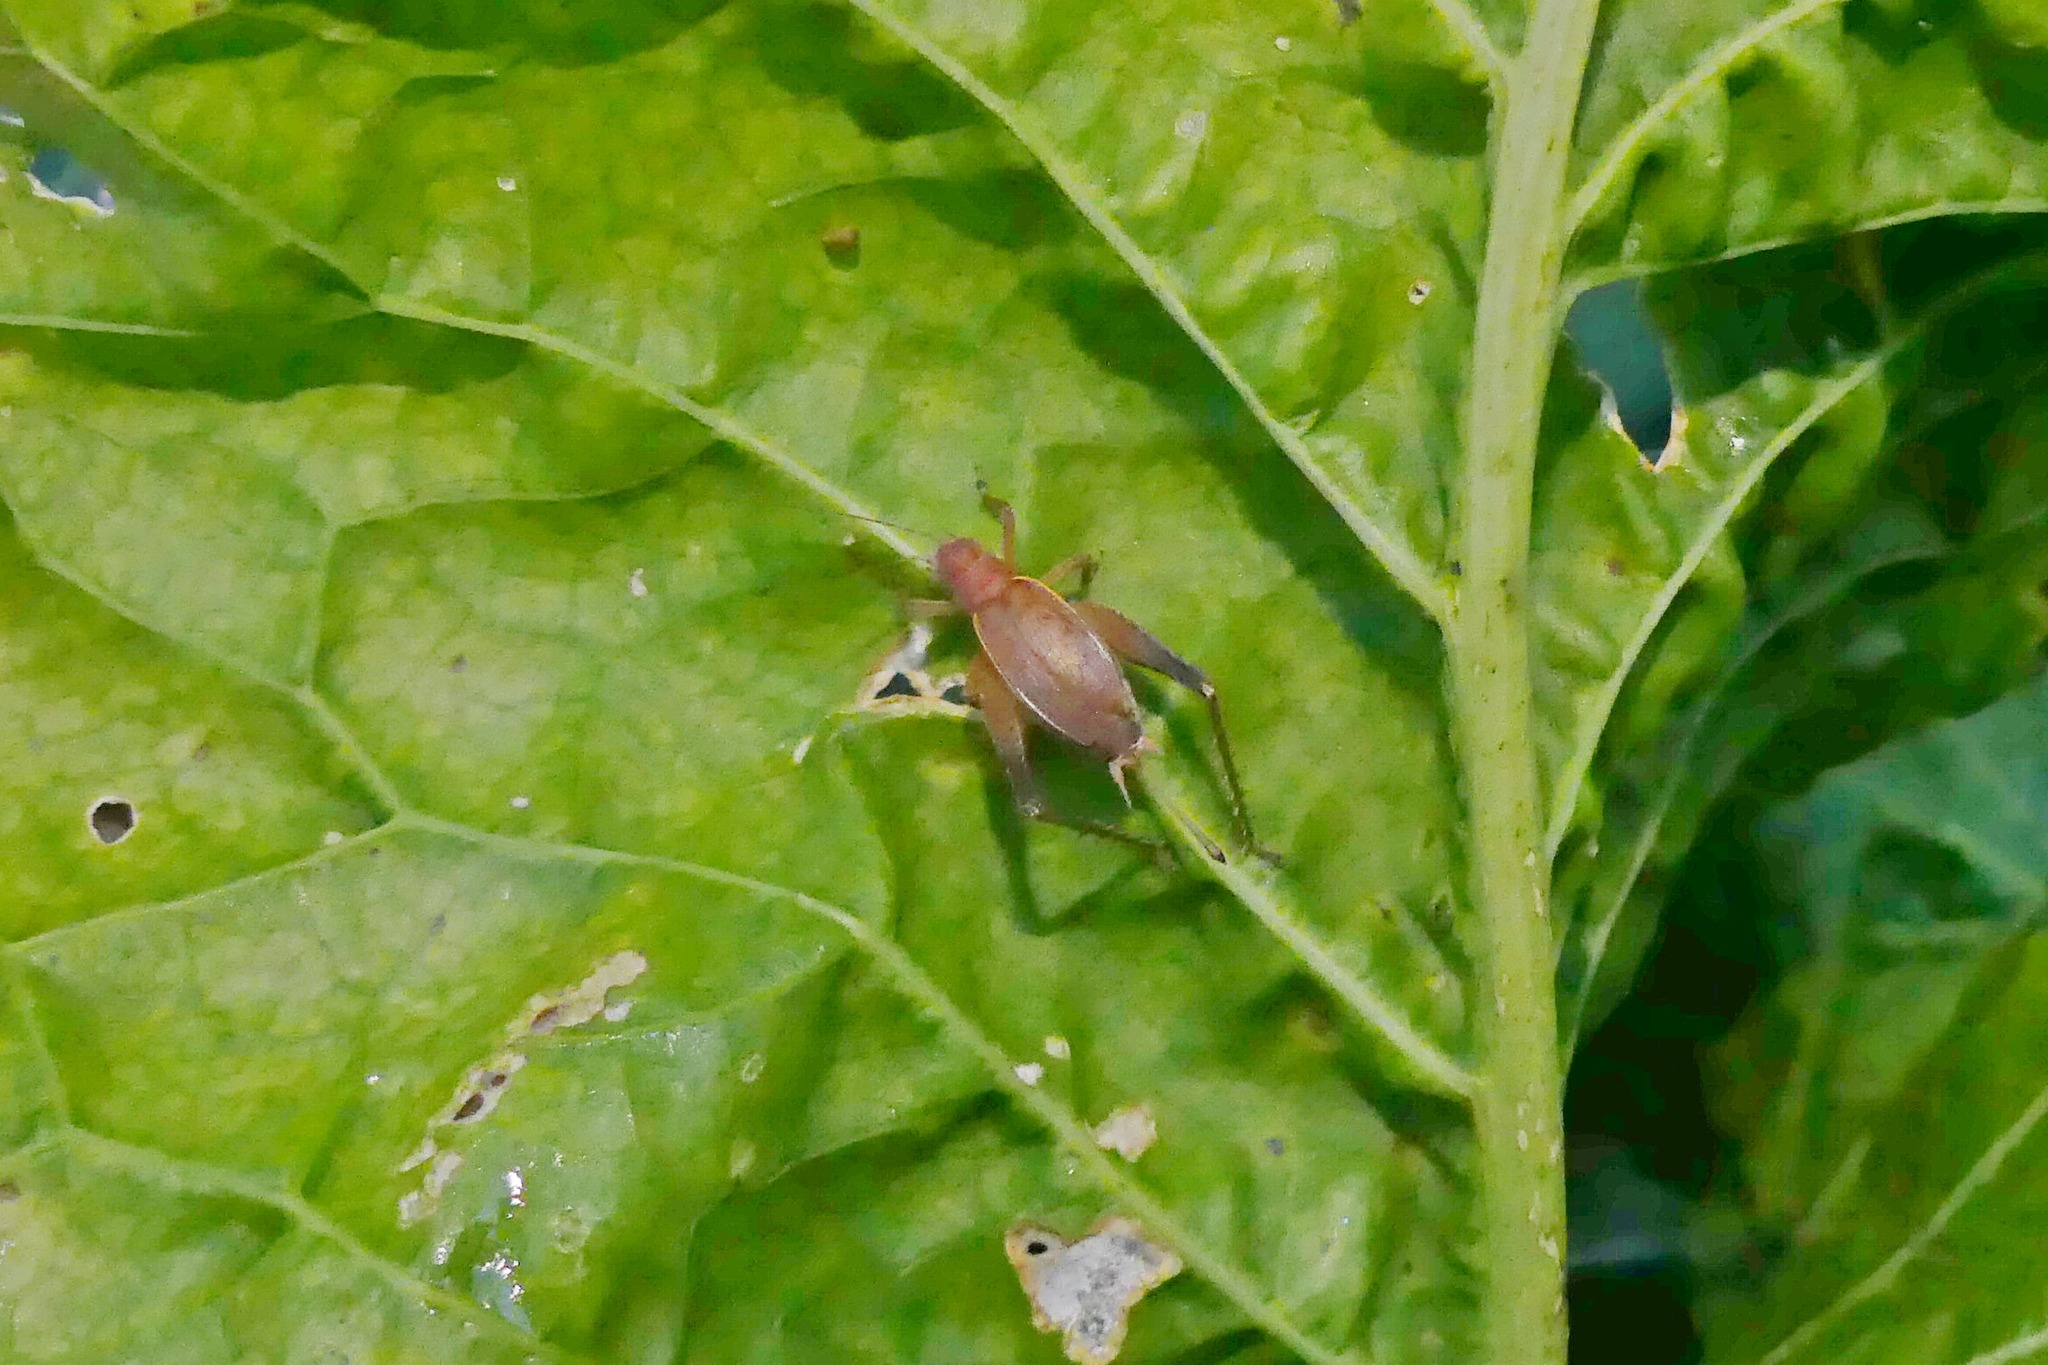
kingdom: Animalia
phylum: Arthropoda
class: Insecta
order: Orthoptera
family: Gryllidae
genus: Hapithus
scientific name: Hapithus agitator
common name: Restless bush cricket
